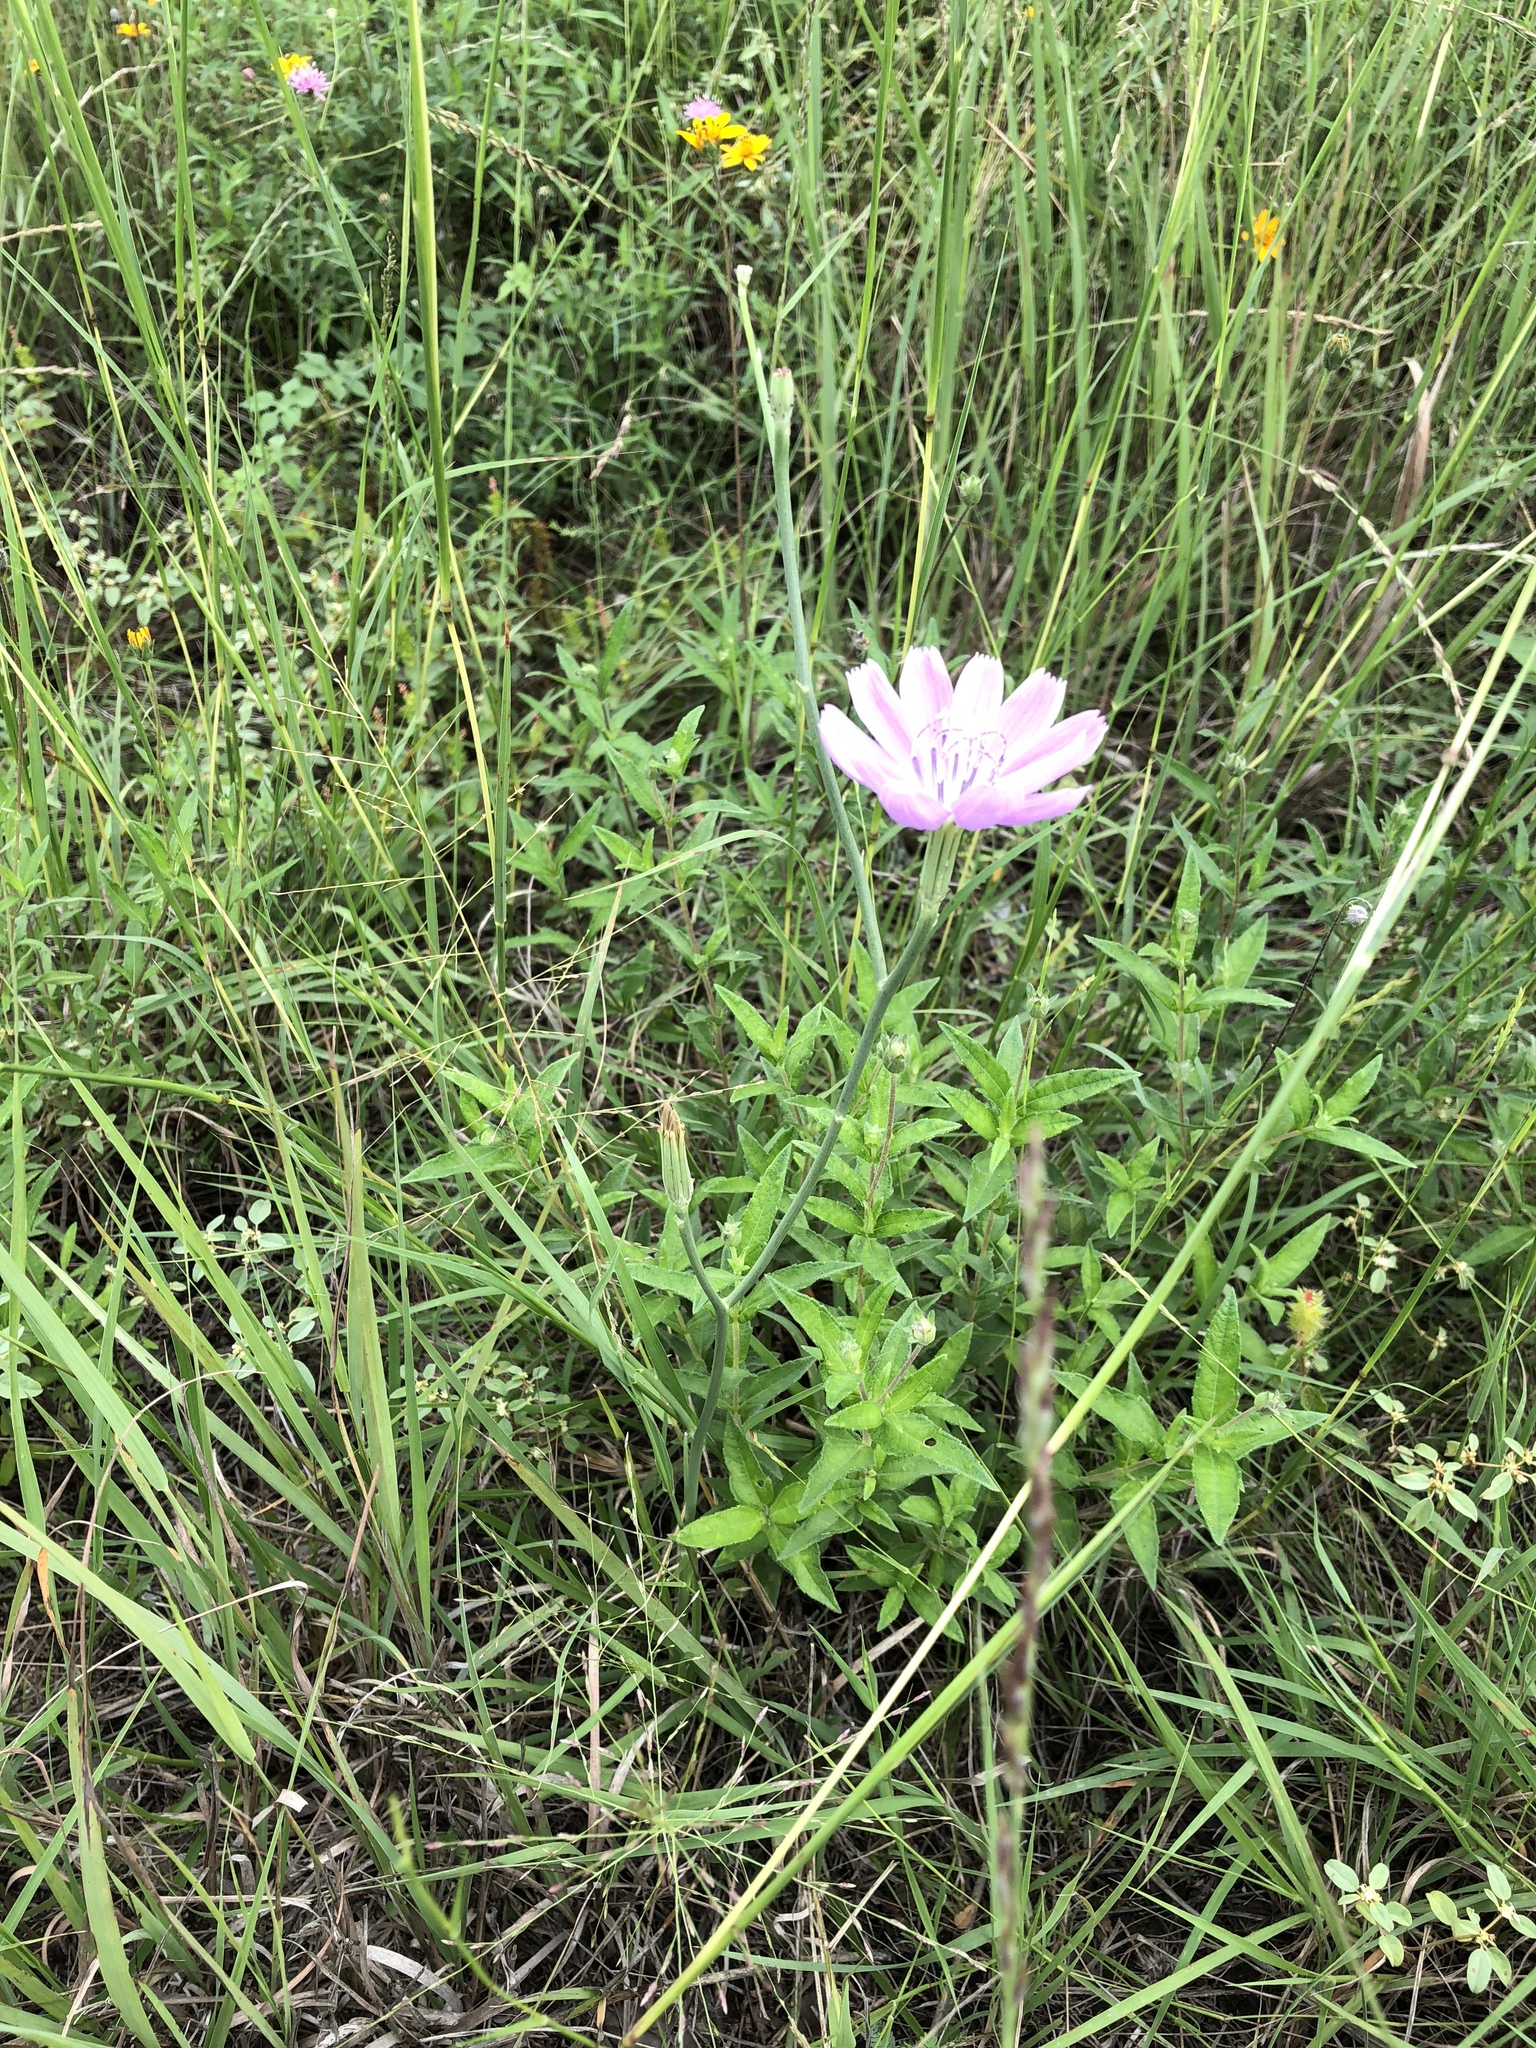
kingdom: Plantae
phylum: Tracheophyta
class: Magnoliopsida
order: Asterales
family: Asteraceae
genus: Lygodesmia
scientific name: Lygodesmia texana
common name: Texas skeleton-plant
